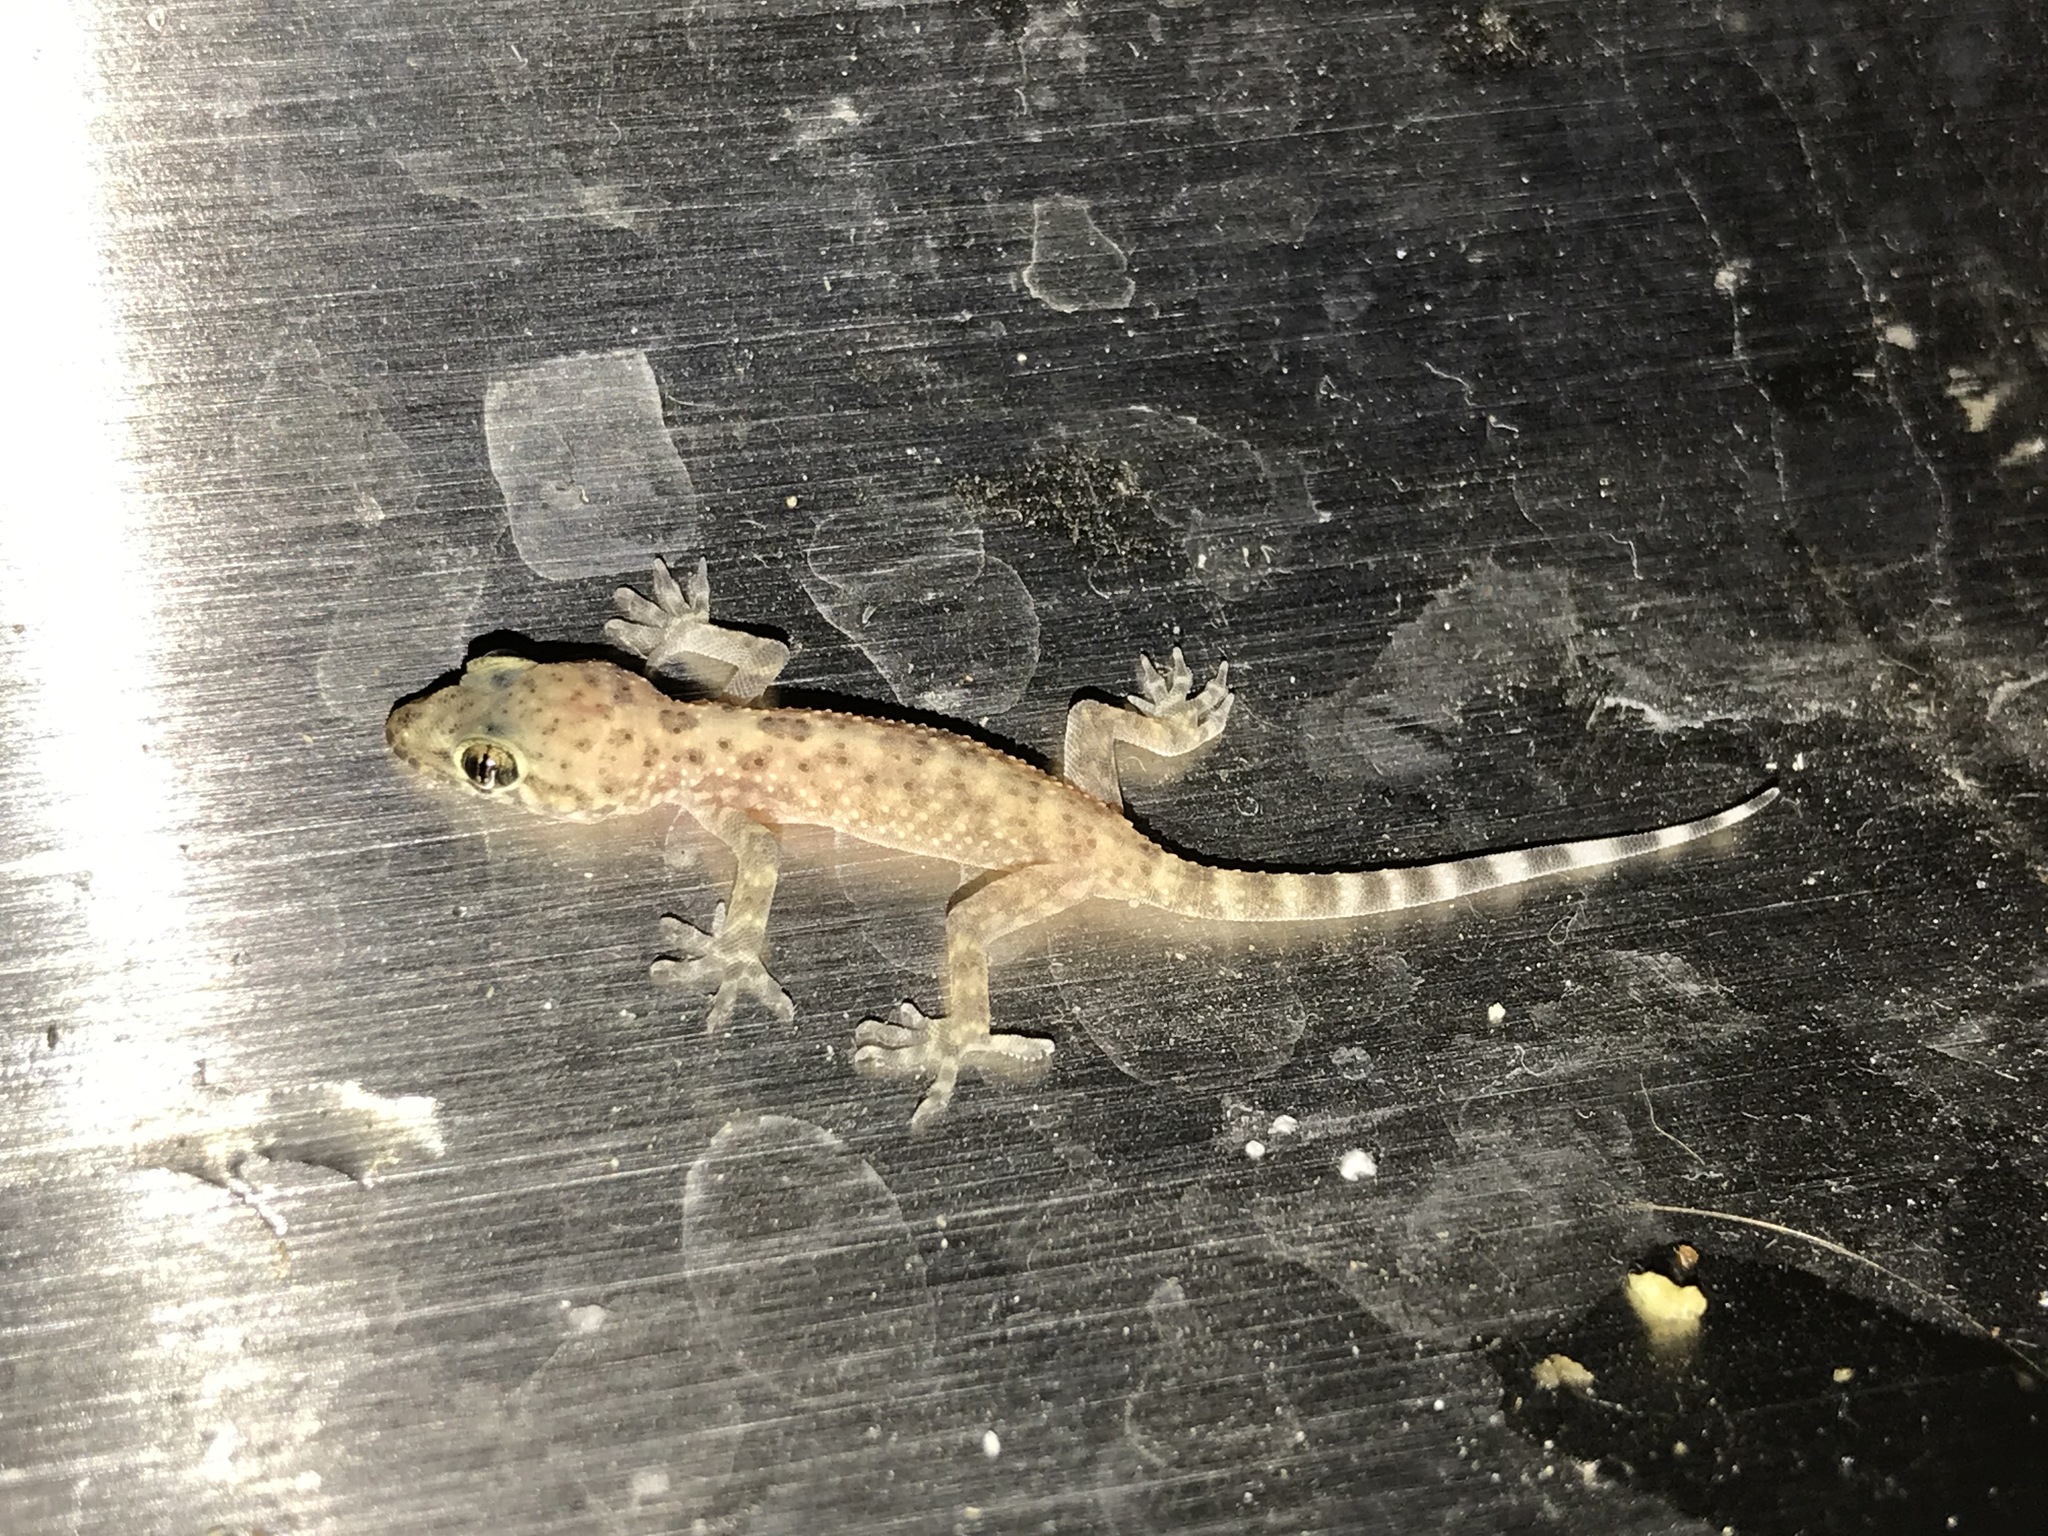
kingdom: Animalia
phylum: Chordata
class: Squamata
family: Gekkonidae
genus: Hemidactylus
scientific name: Hemidactylus turcicus
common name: Turkish gecko
